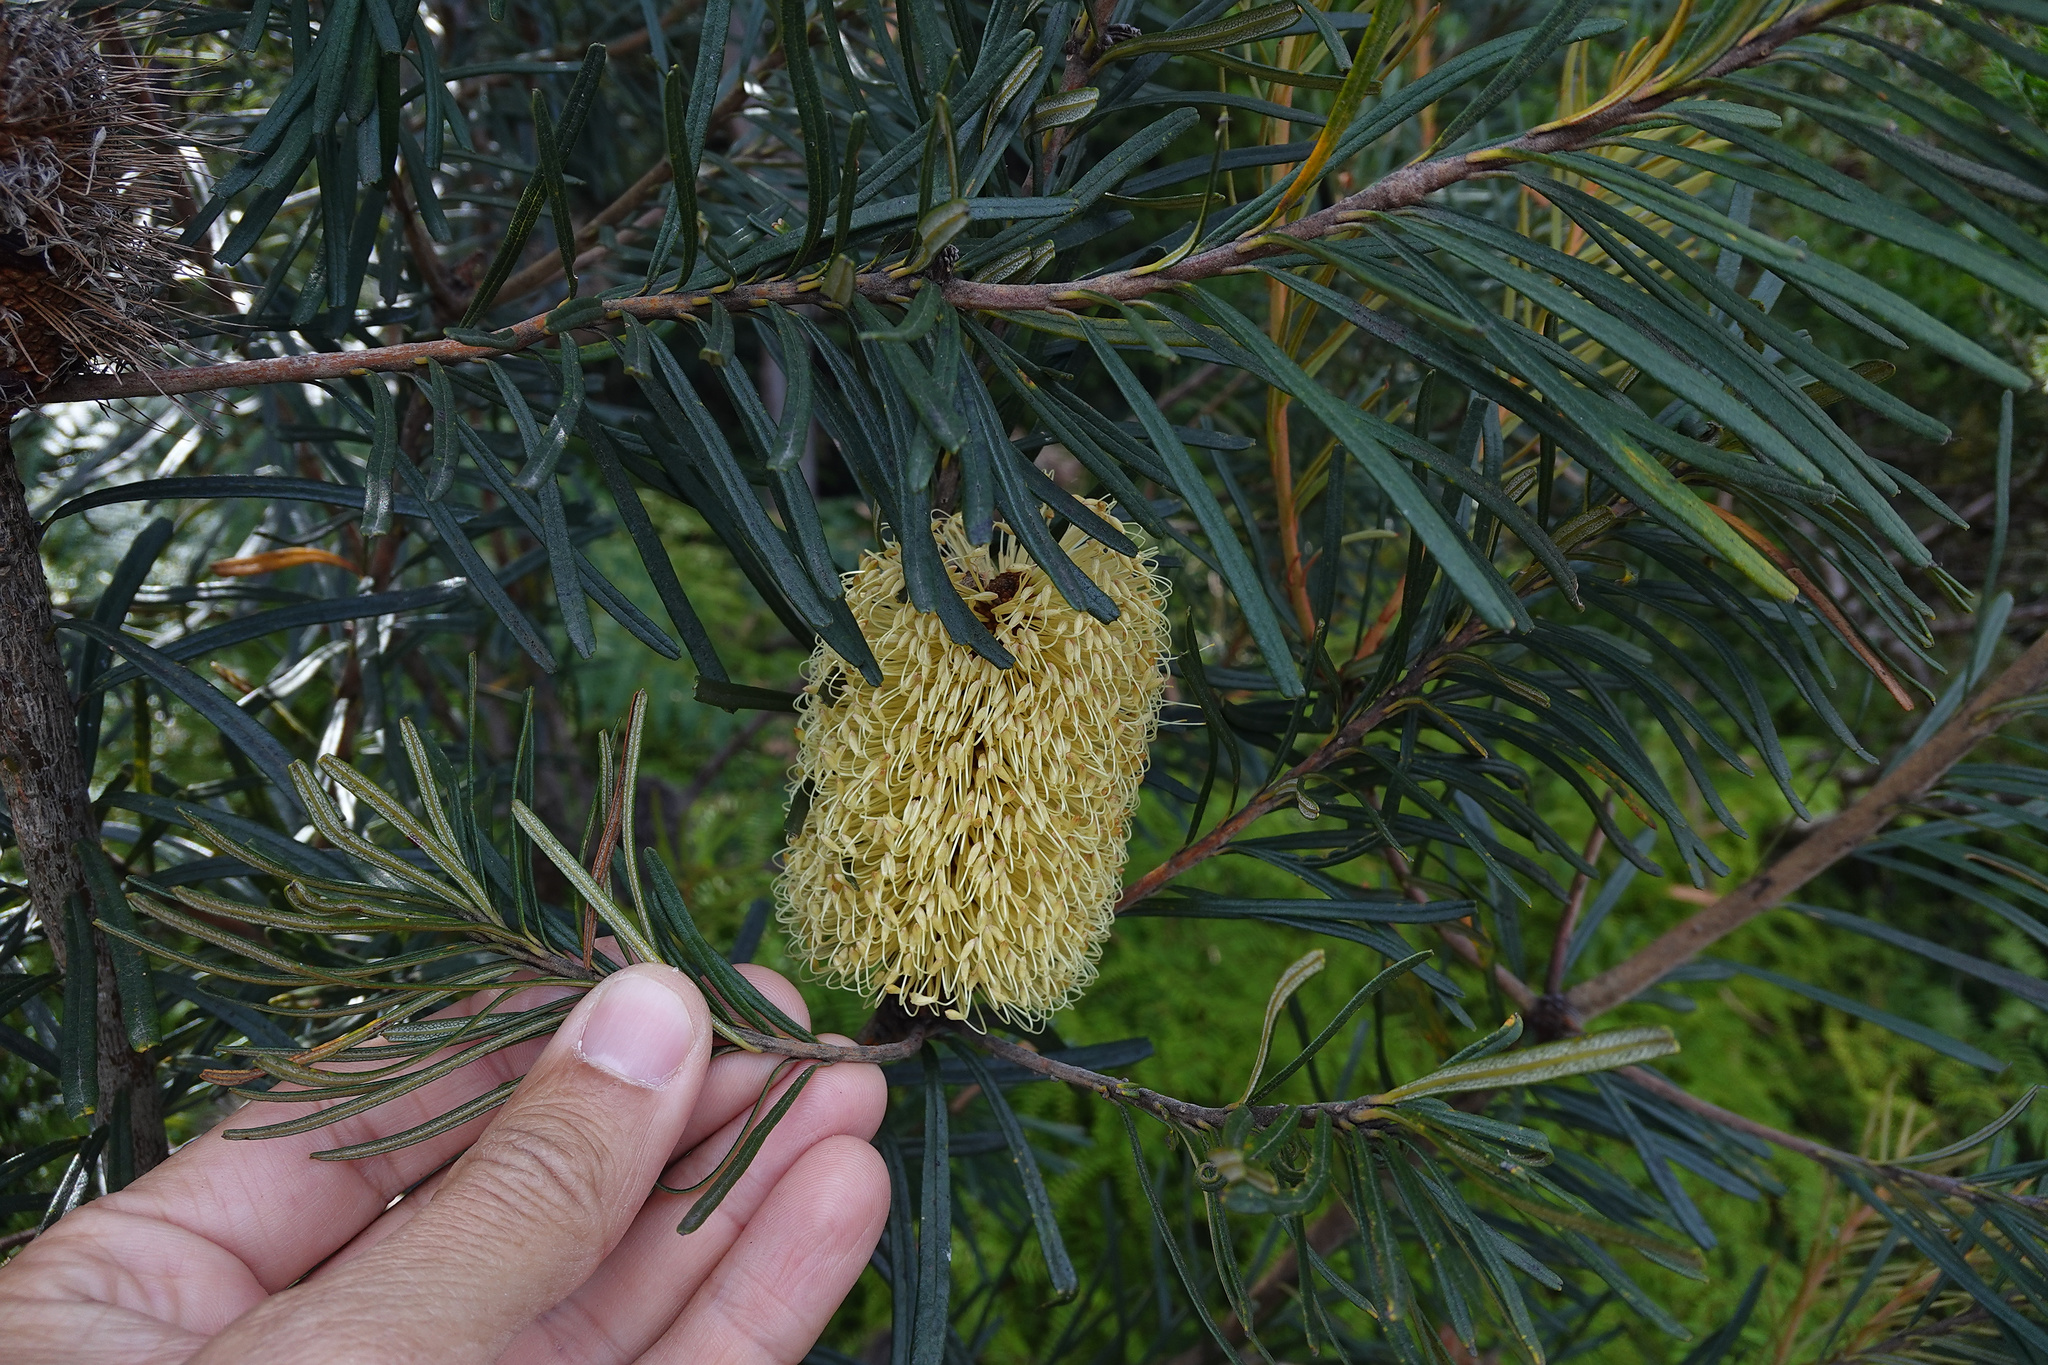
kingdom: Plantae
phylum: Tracheophyta
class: Magnoliopsida
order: Proteales
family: Proteaceae
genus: Banksia
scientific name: Banksia marginata
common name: Silver banksia
